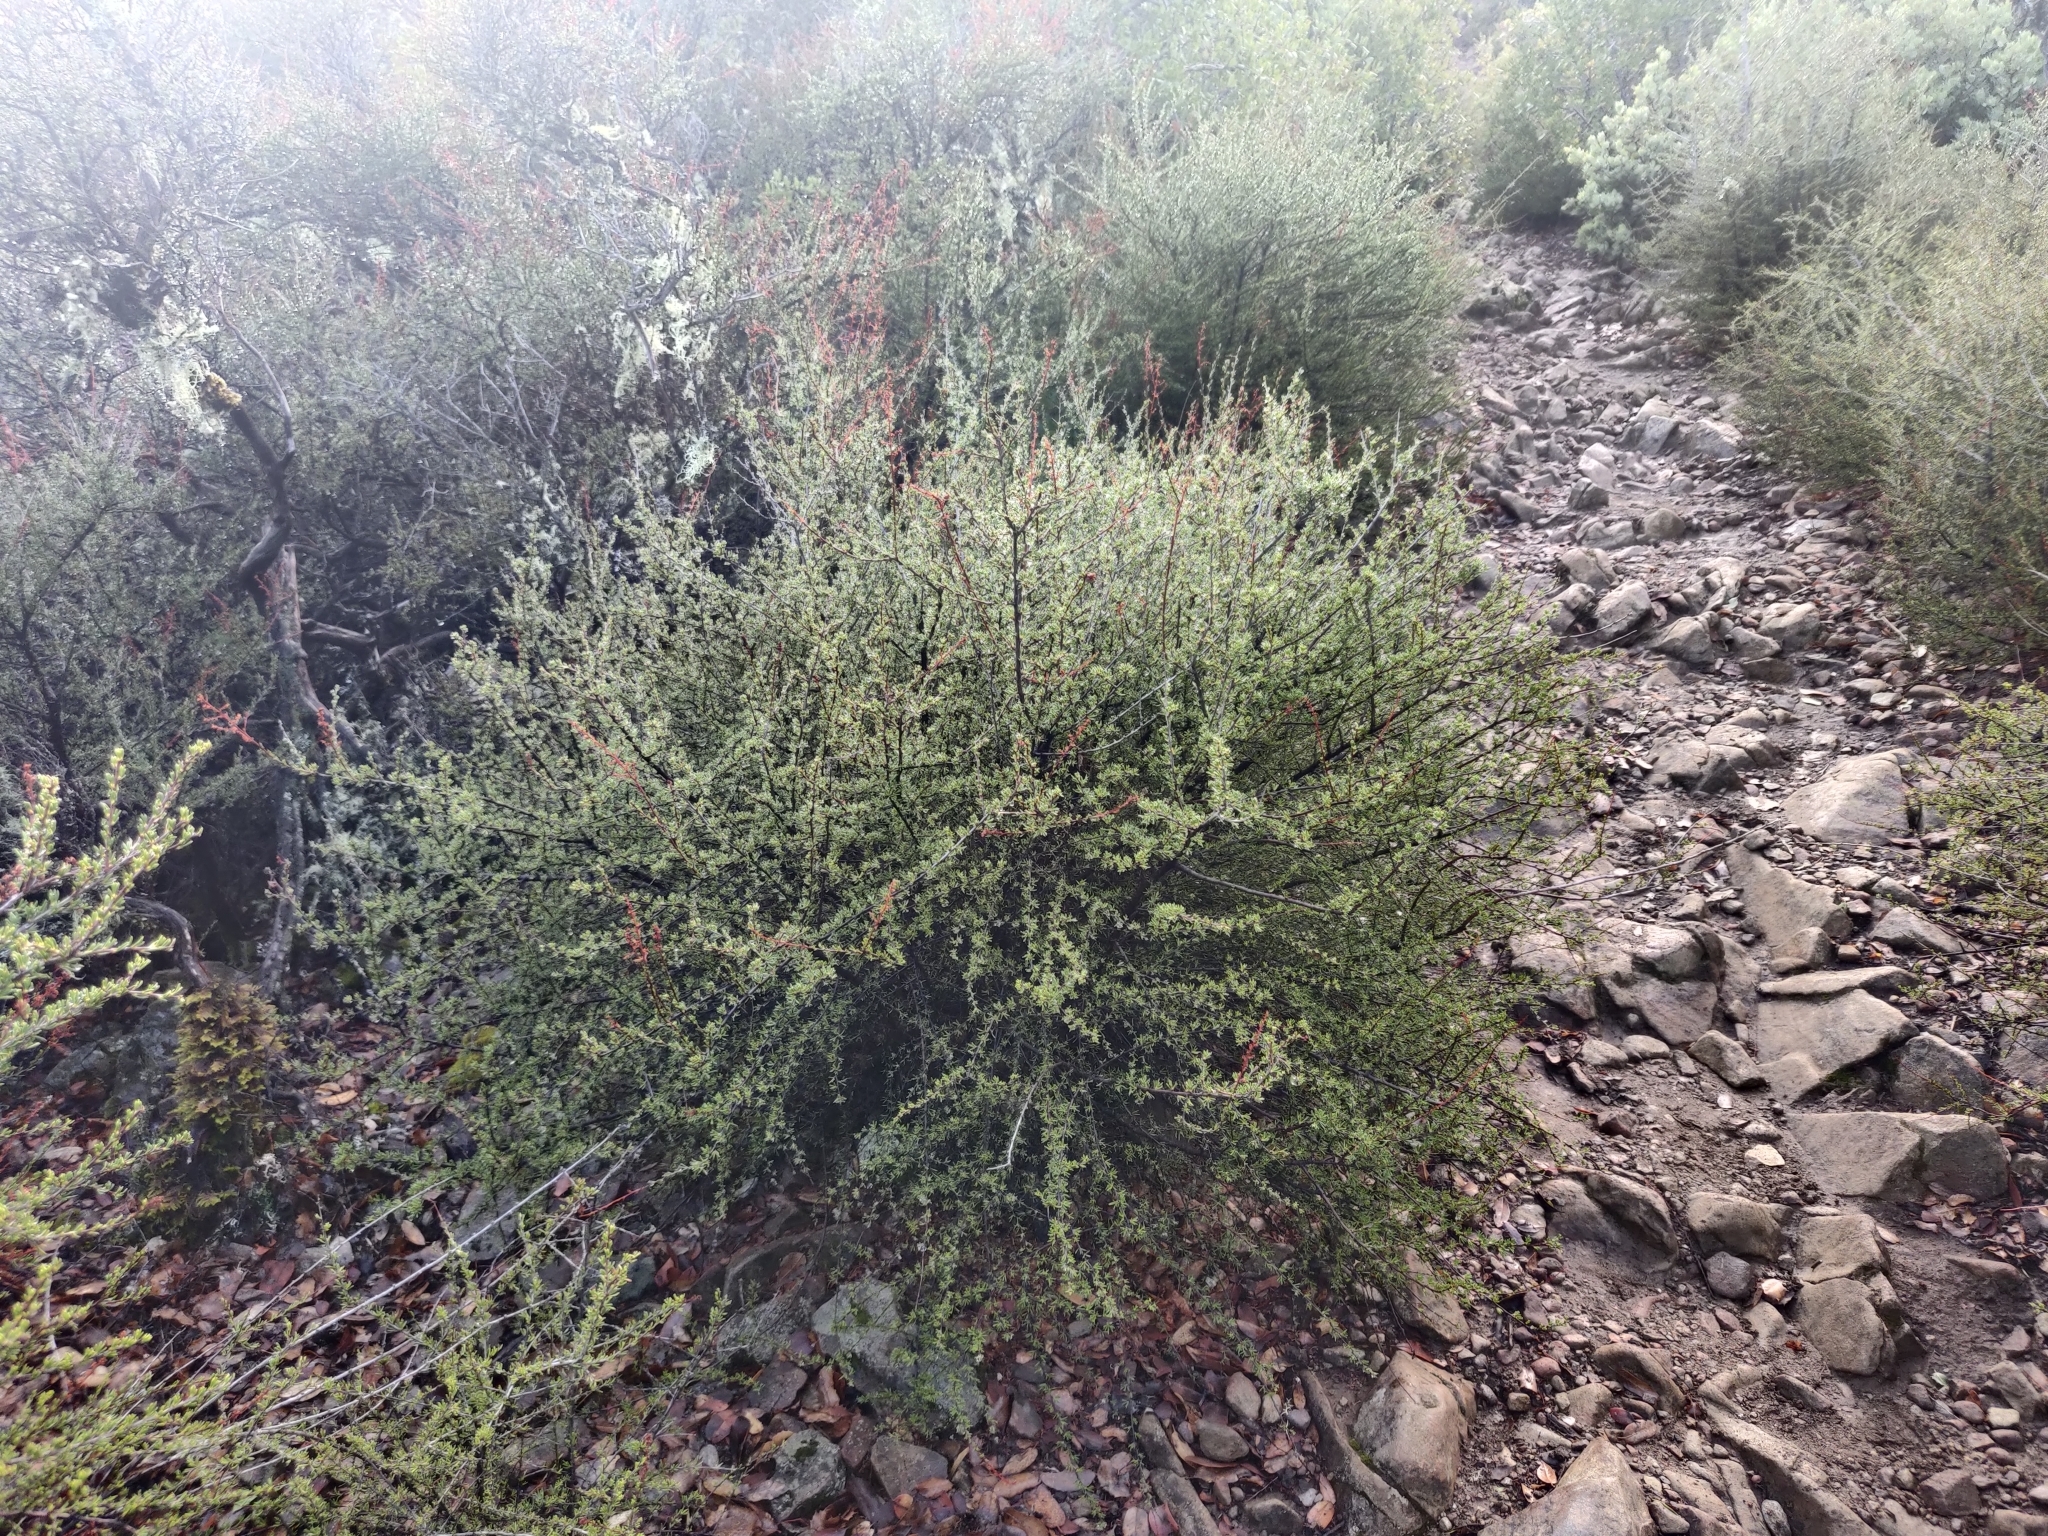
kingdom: Plantae
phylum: Tracheophyta
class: Magnoliopsida
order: Rosales
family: Rosaceae
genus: Adenostoma
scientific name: Adenostoma fasciculatum
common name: Chamise
